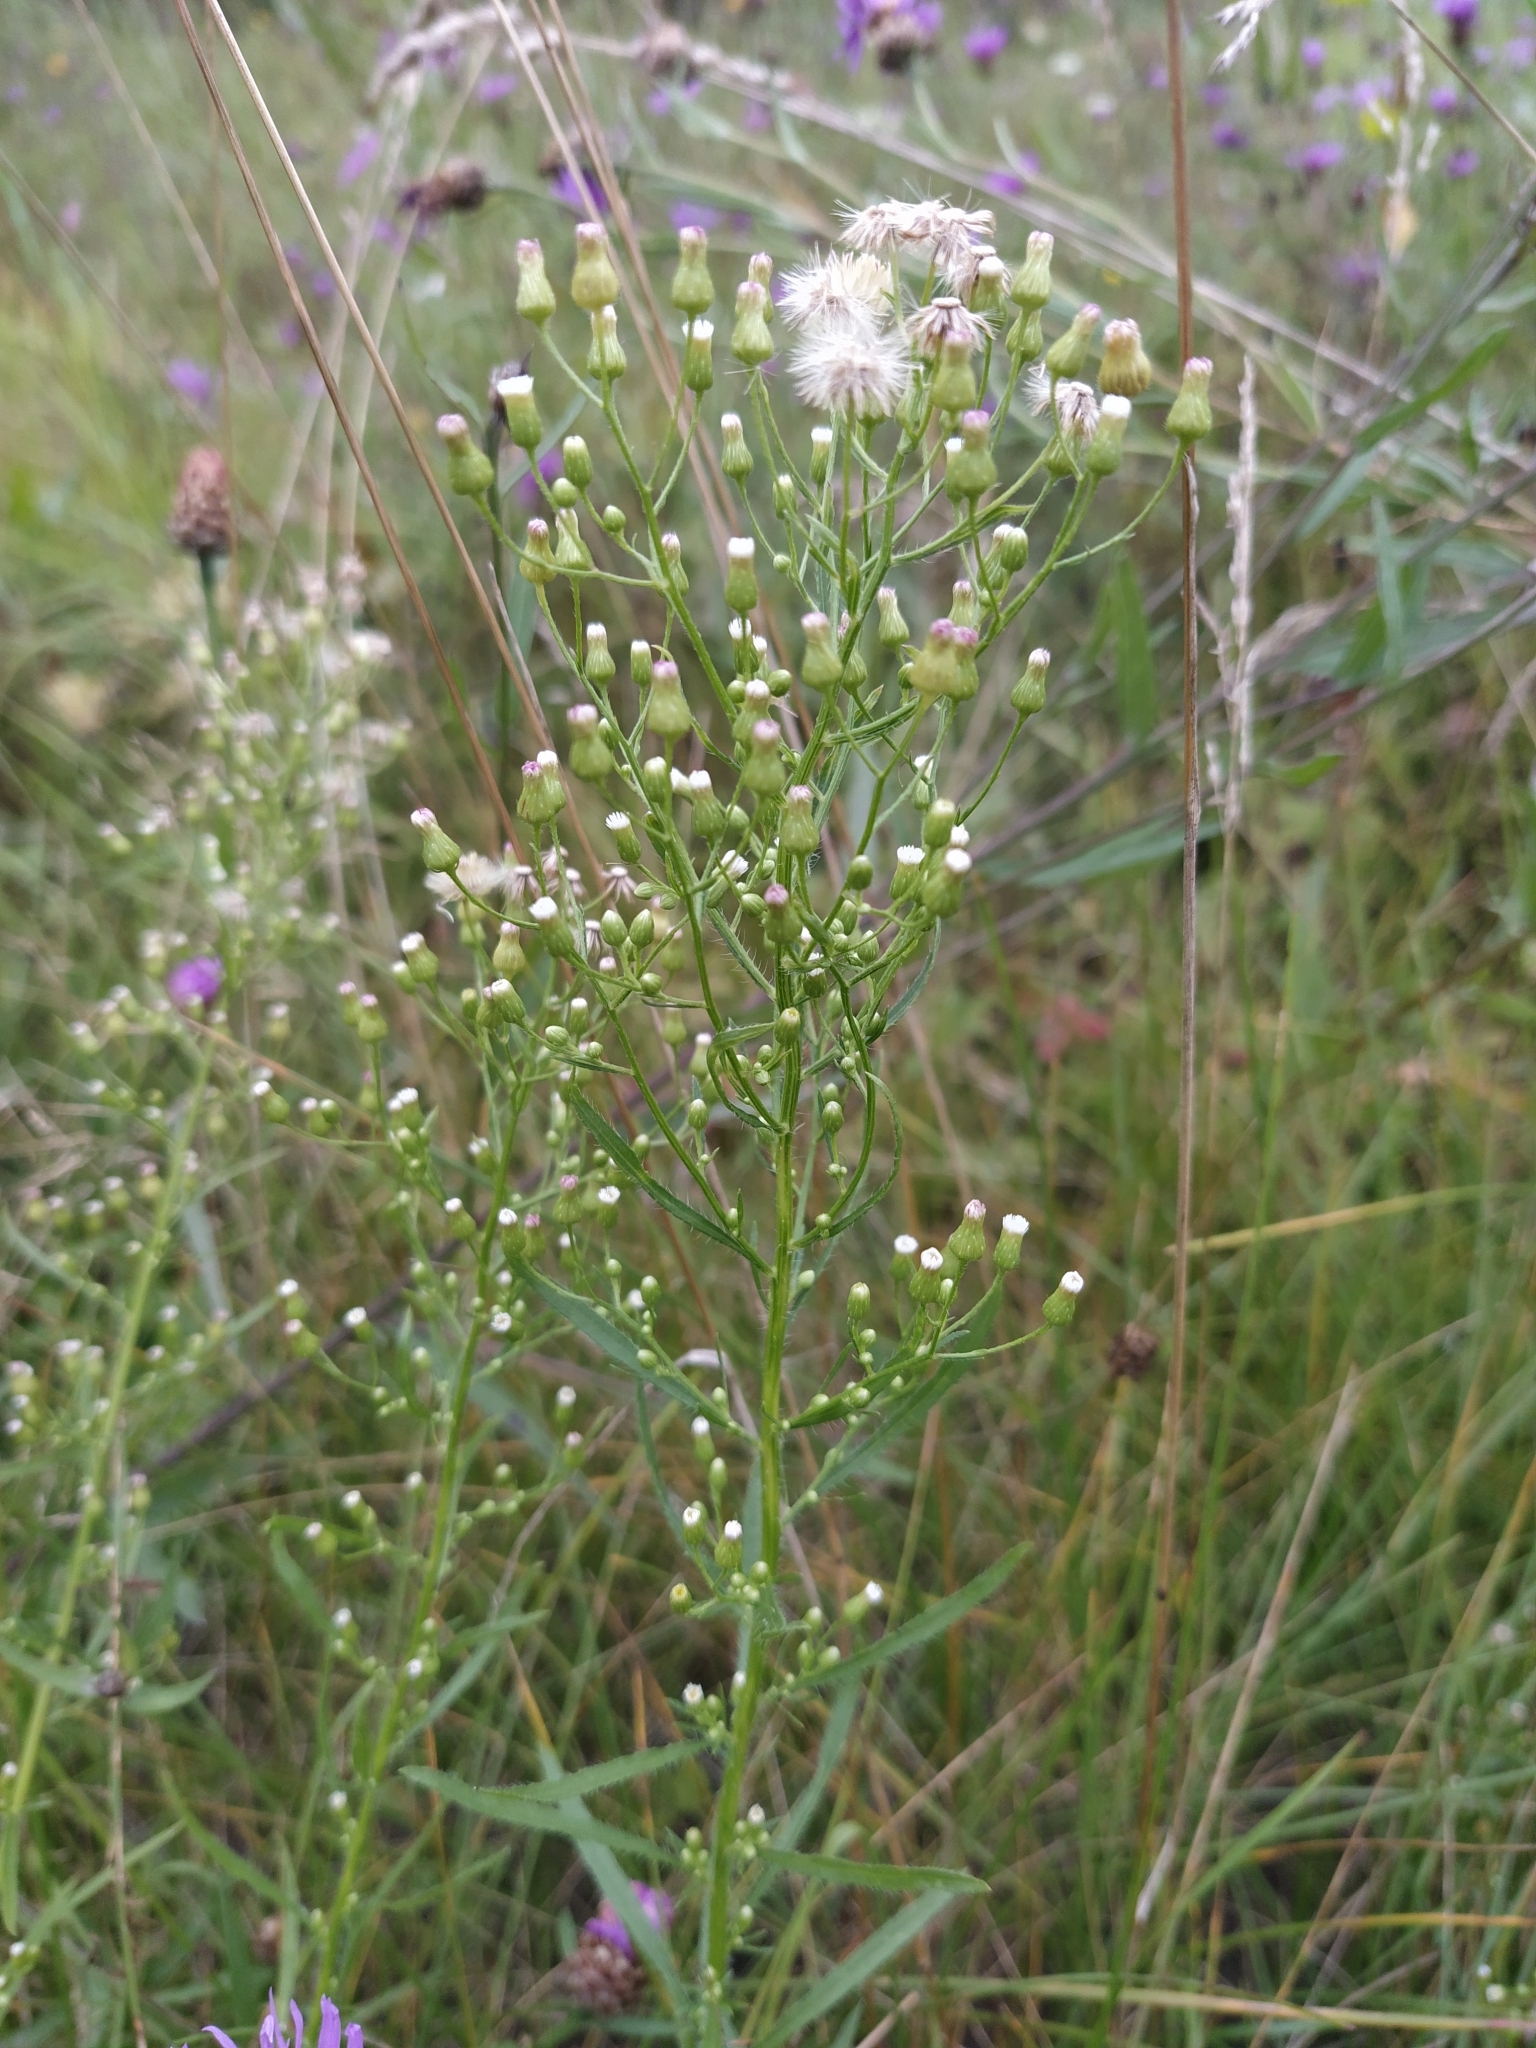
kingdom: Plantae
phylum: Tracheophyta
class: Magnoliopsida
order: Asterales
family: Asteraceae
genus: Erigeron
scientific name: Erigeron canadensis
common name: Canadian fleabane
